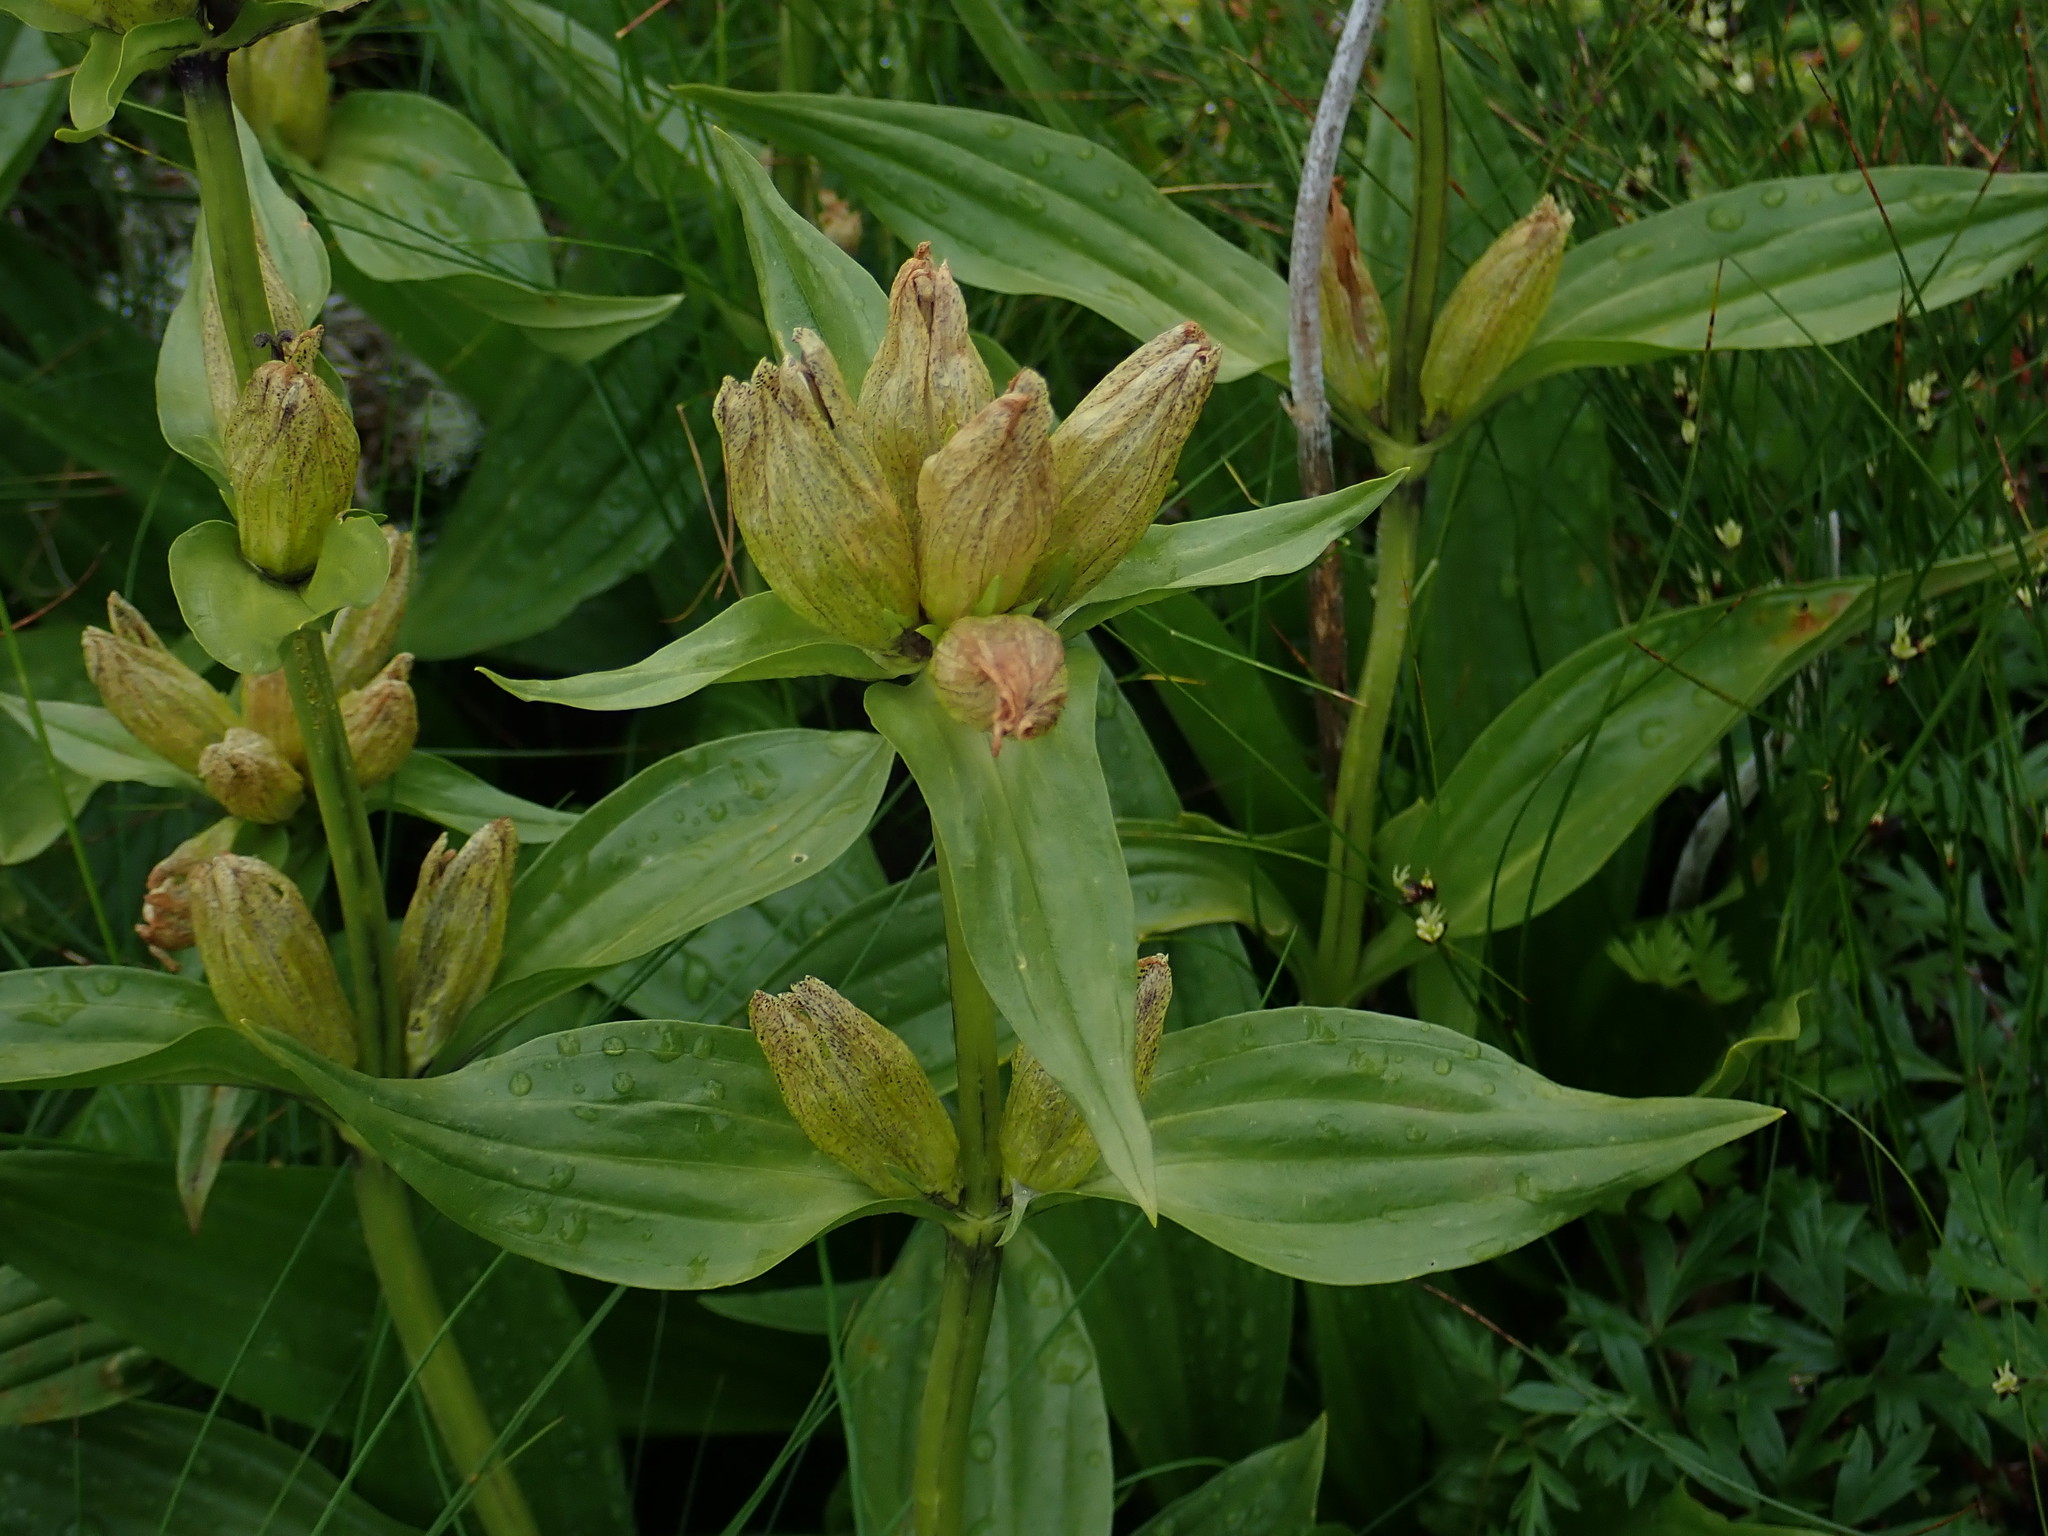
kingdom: Plantae
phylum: Tracheophyta
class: Magnoliopsida
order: Gentianales
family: Gentianaceae
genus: Gentiana
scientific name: Gentiana punctata
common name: Spotted gentian
